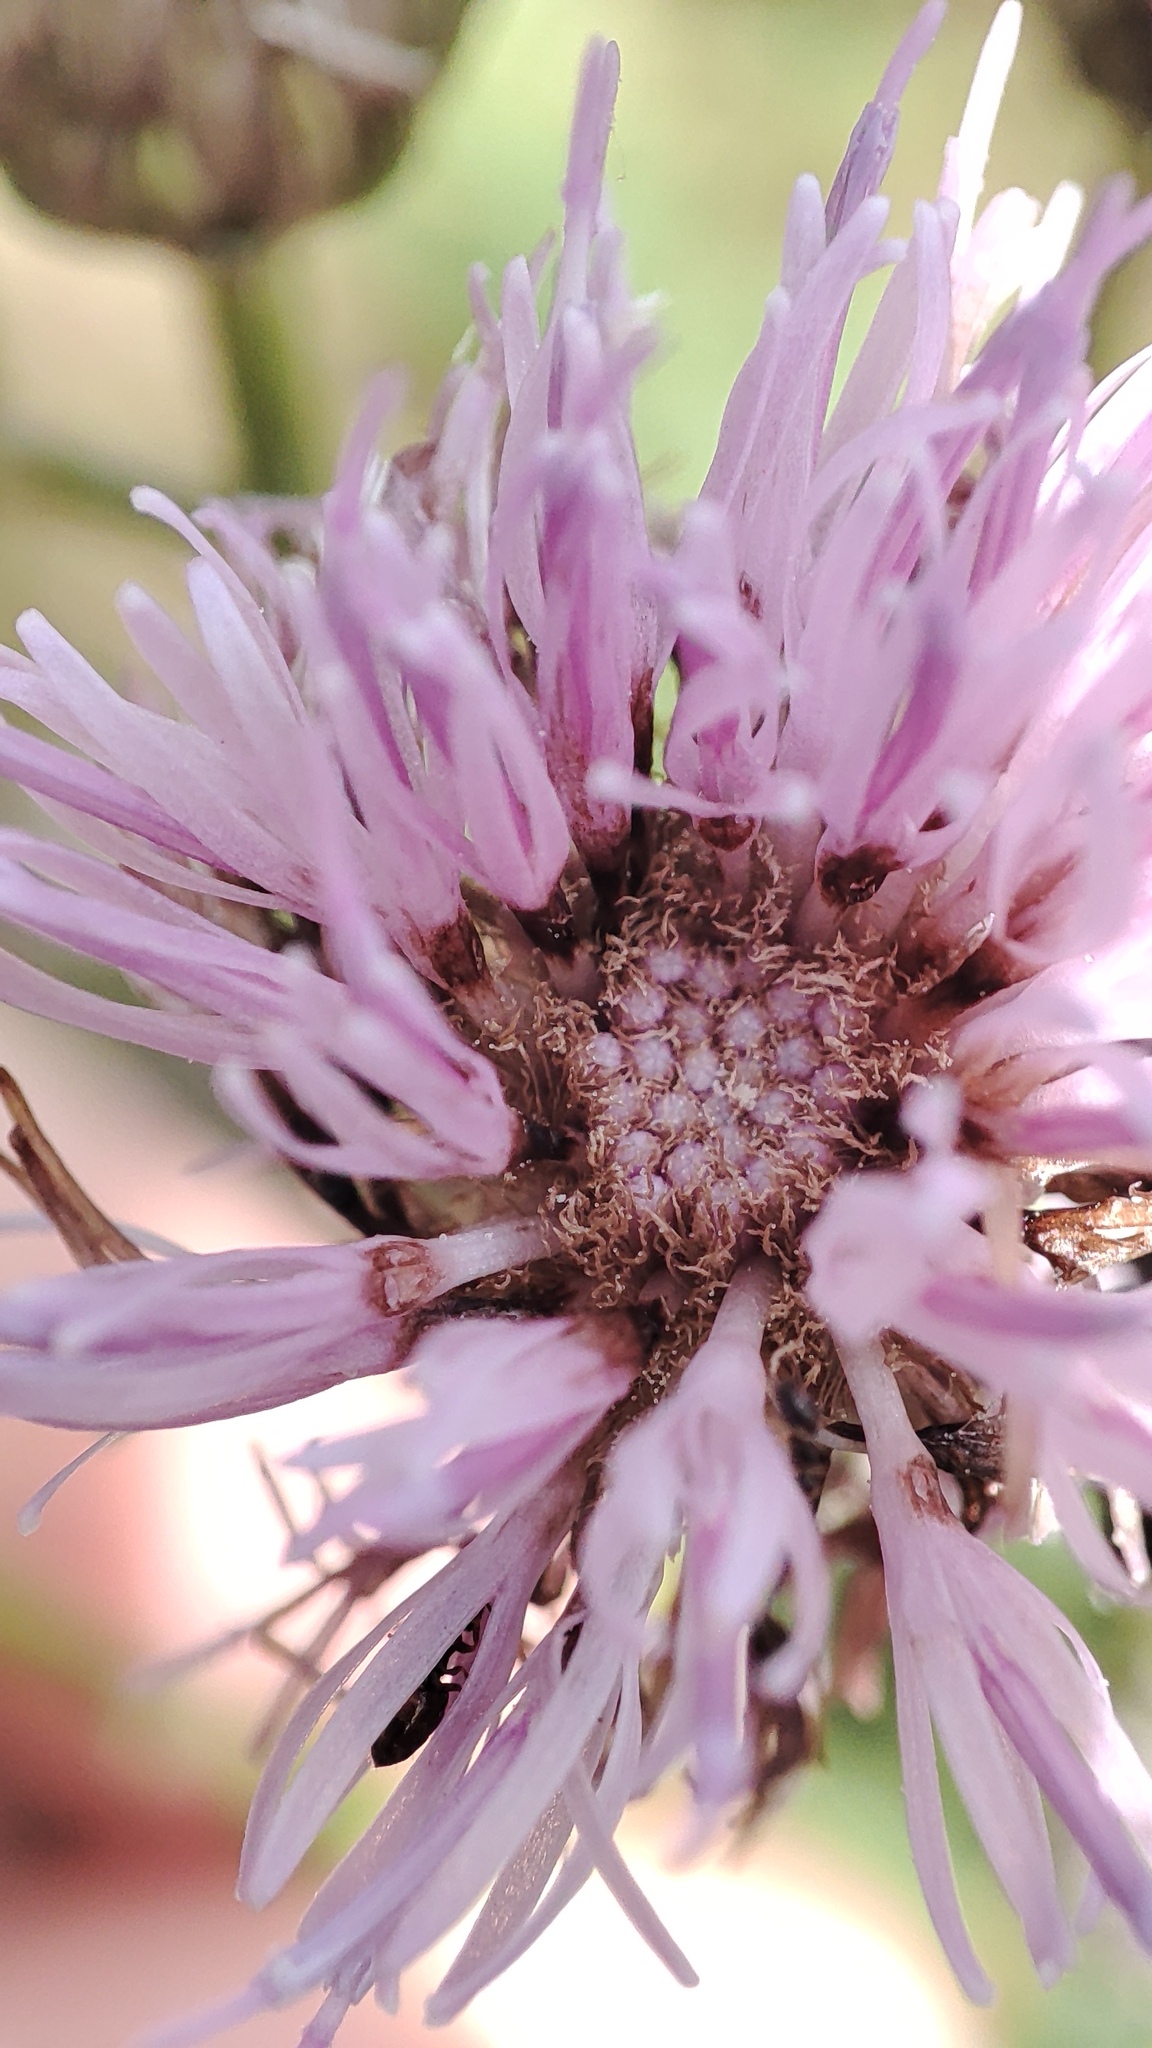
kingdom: Plantae
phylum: Tracheophyta
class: Magnoliopsida
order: Asterales
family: Asteraceae
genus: Cirsium
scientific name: Cirsium arvense
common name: Creeping thistle
